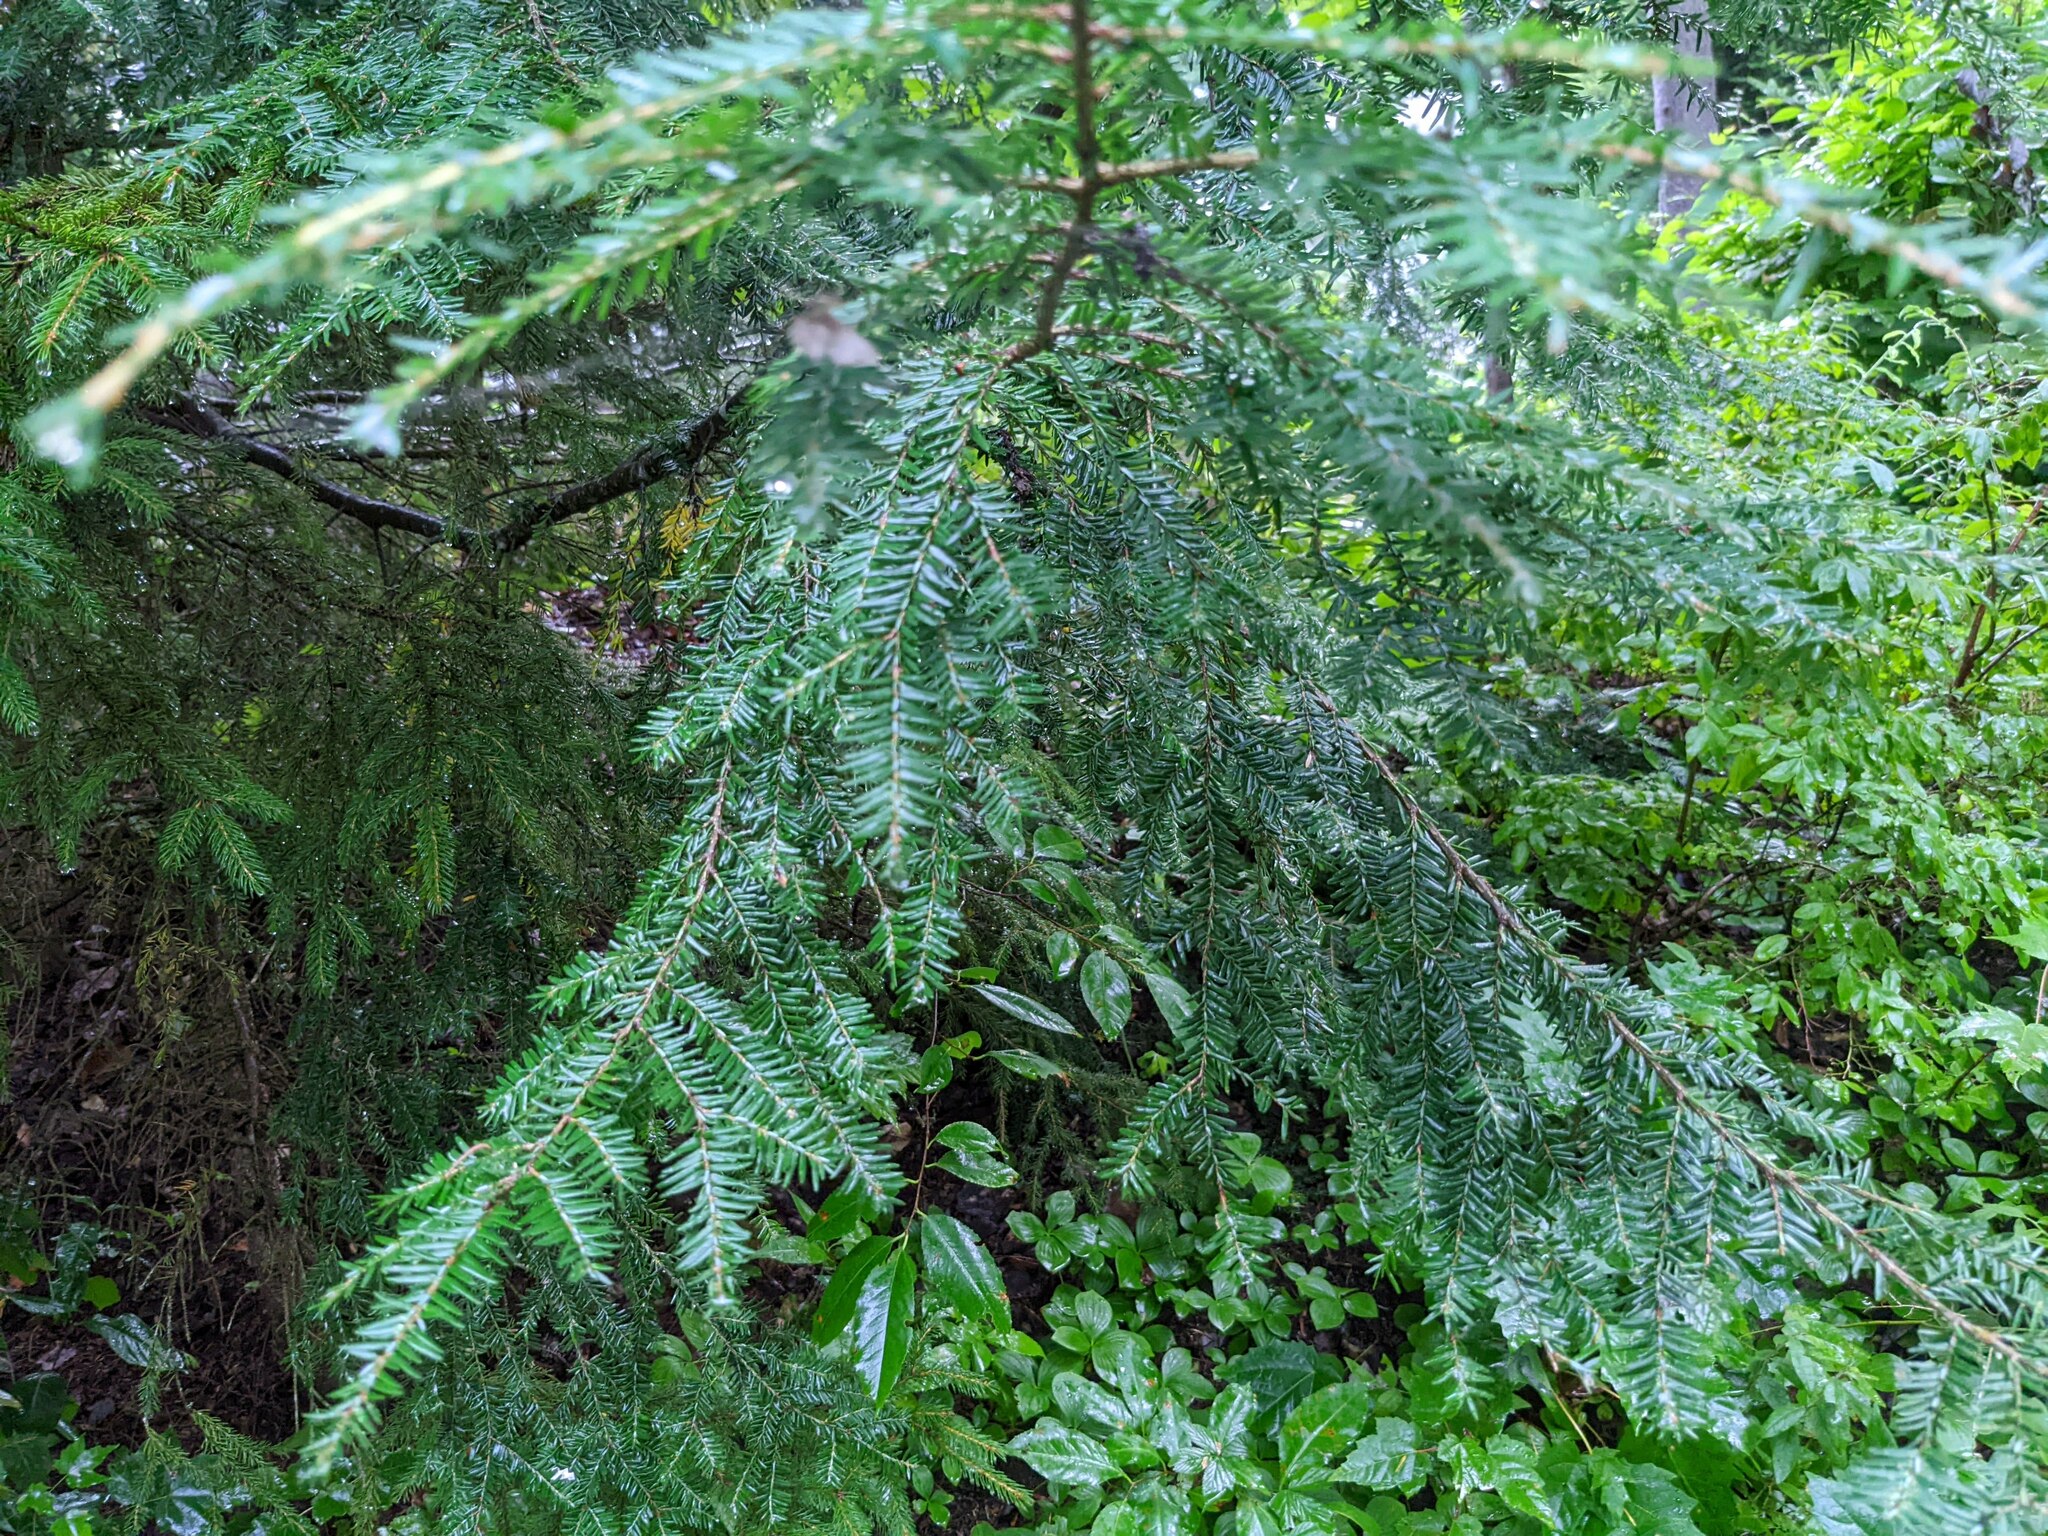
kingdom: Plantae
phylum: Tracheophyta
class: Pinopsida
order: Pinales
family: Pinaceae
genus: Tsuga
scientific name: Tsuga canadensis
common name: Eastern hemlock
